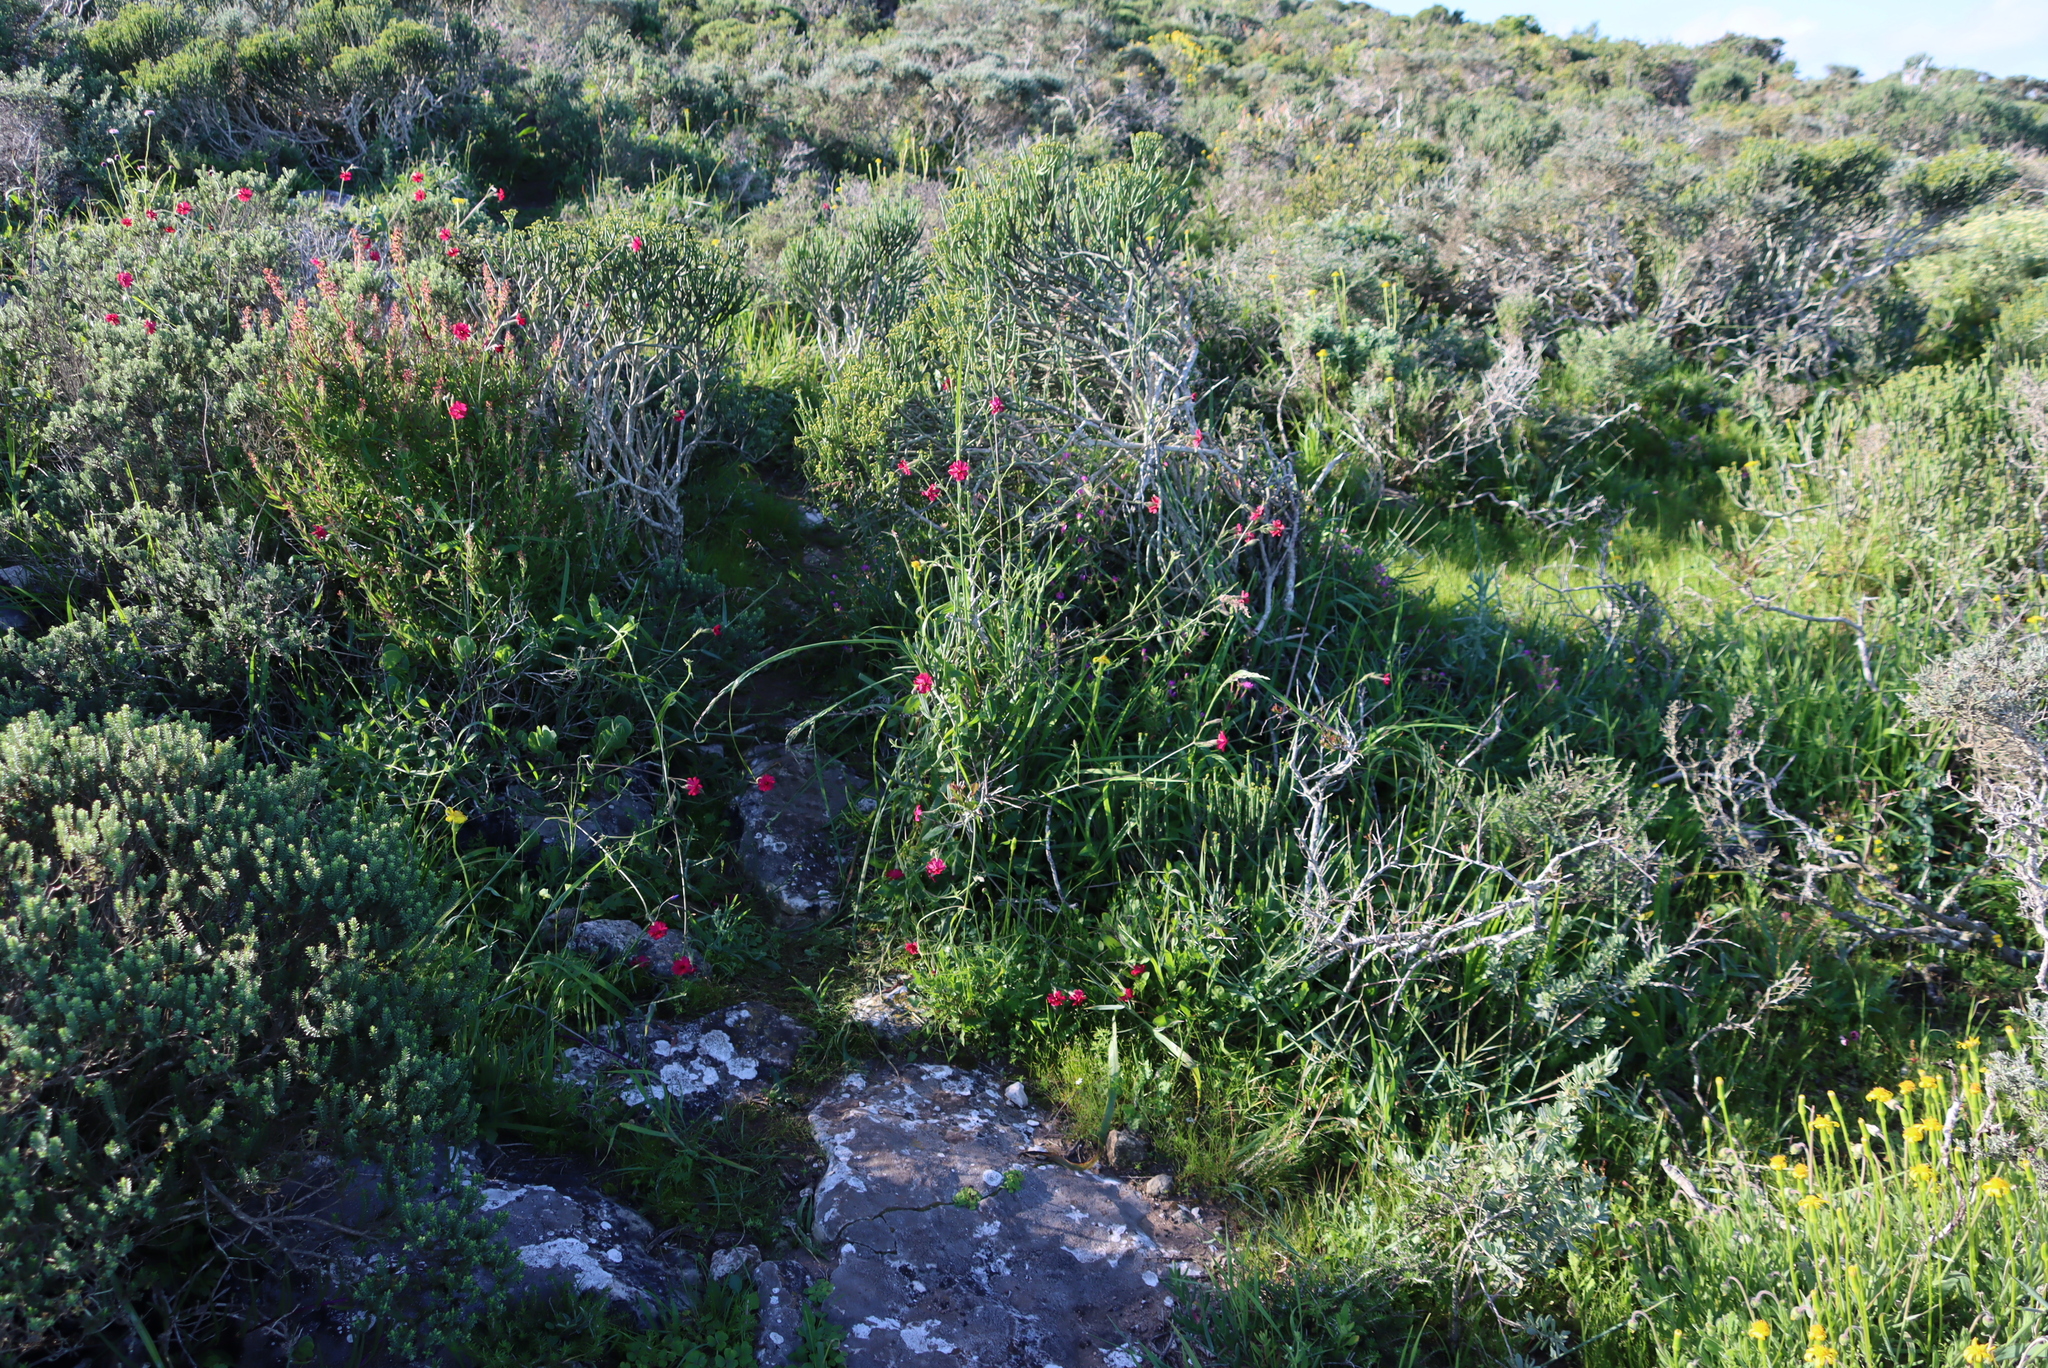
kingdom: Plantae
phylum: Tracheophyta
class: Magnoliopsida
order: Caryophyllales
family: Caryophyllaceae
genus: Silene
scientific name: Silene ornata
